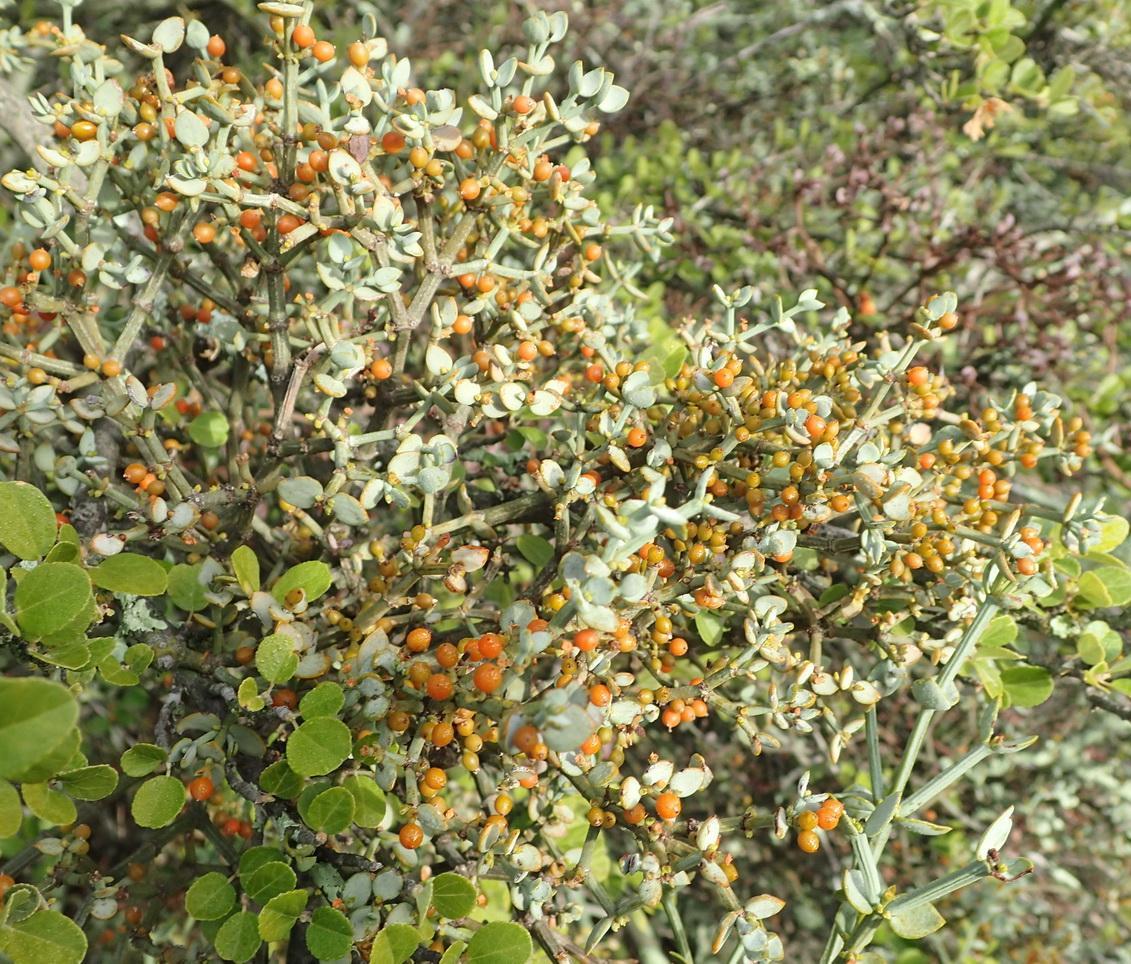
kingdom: Plantae
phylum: Tracheophyta
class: Magnoliopsida
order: Santalales
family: Viscaceae
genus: Viscum
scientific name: Viscum rotundifolium
